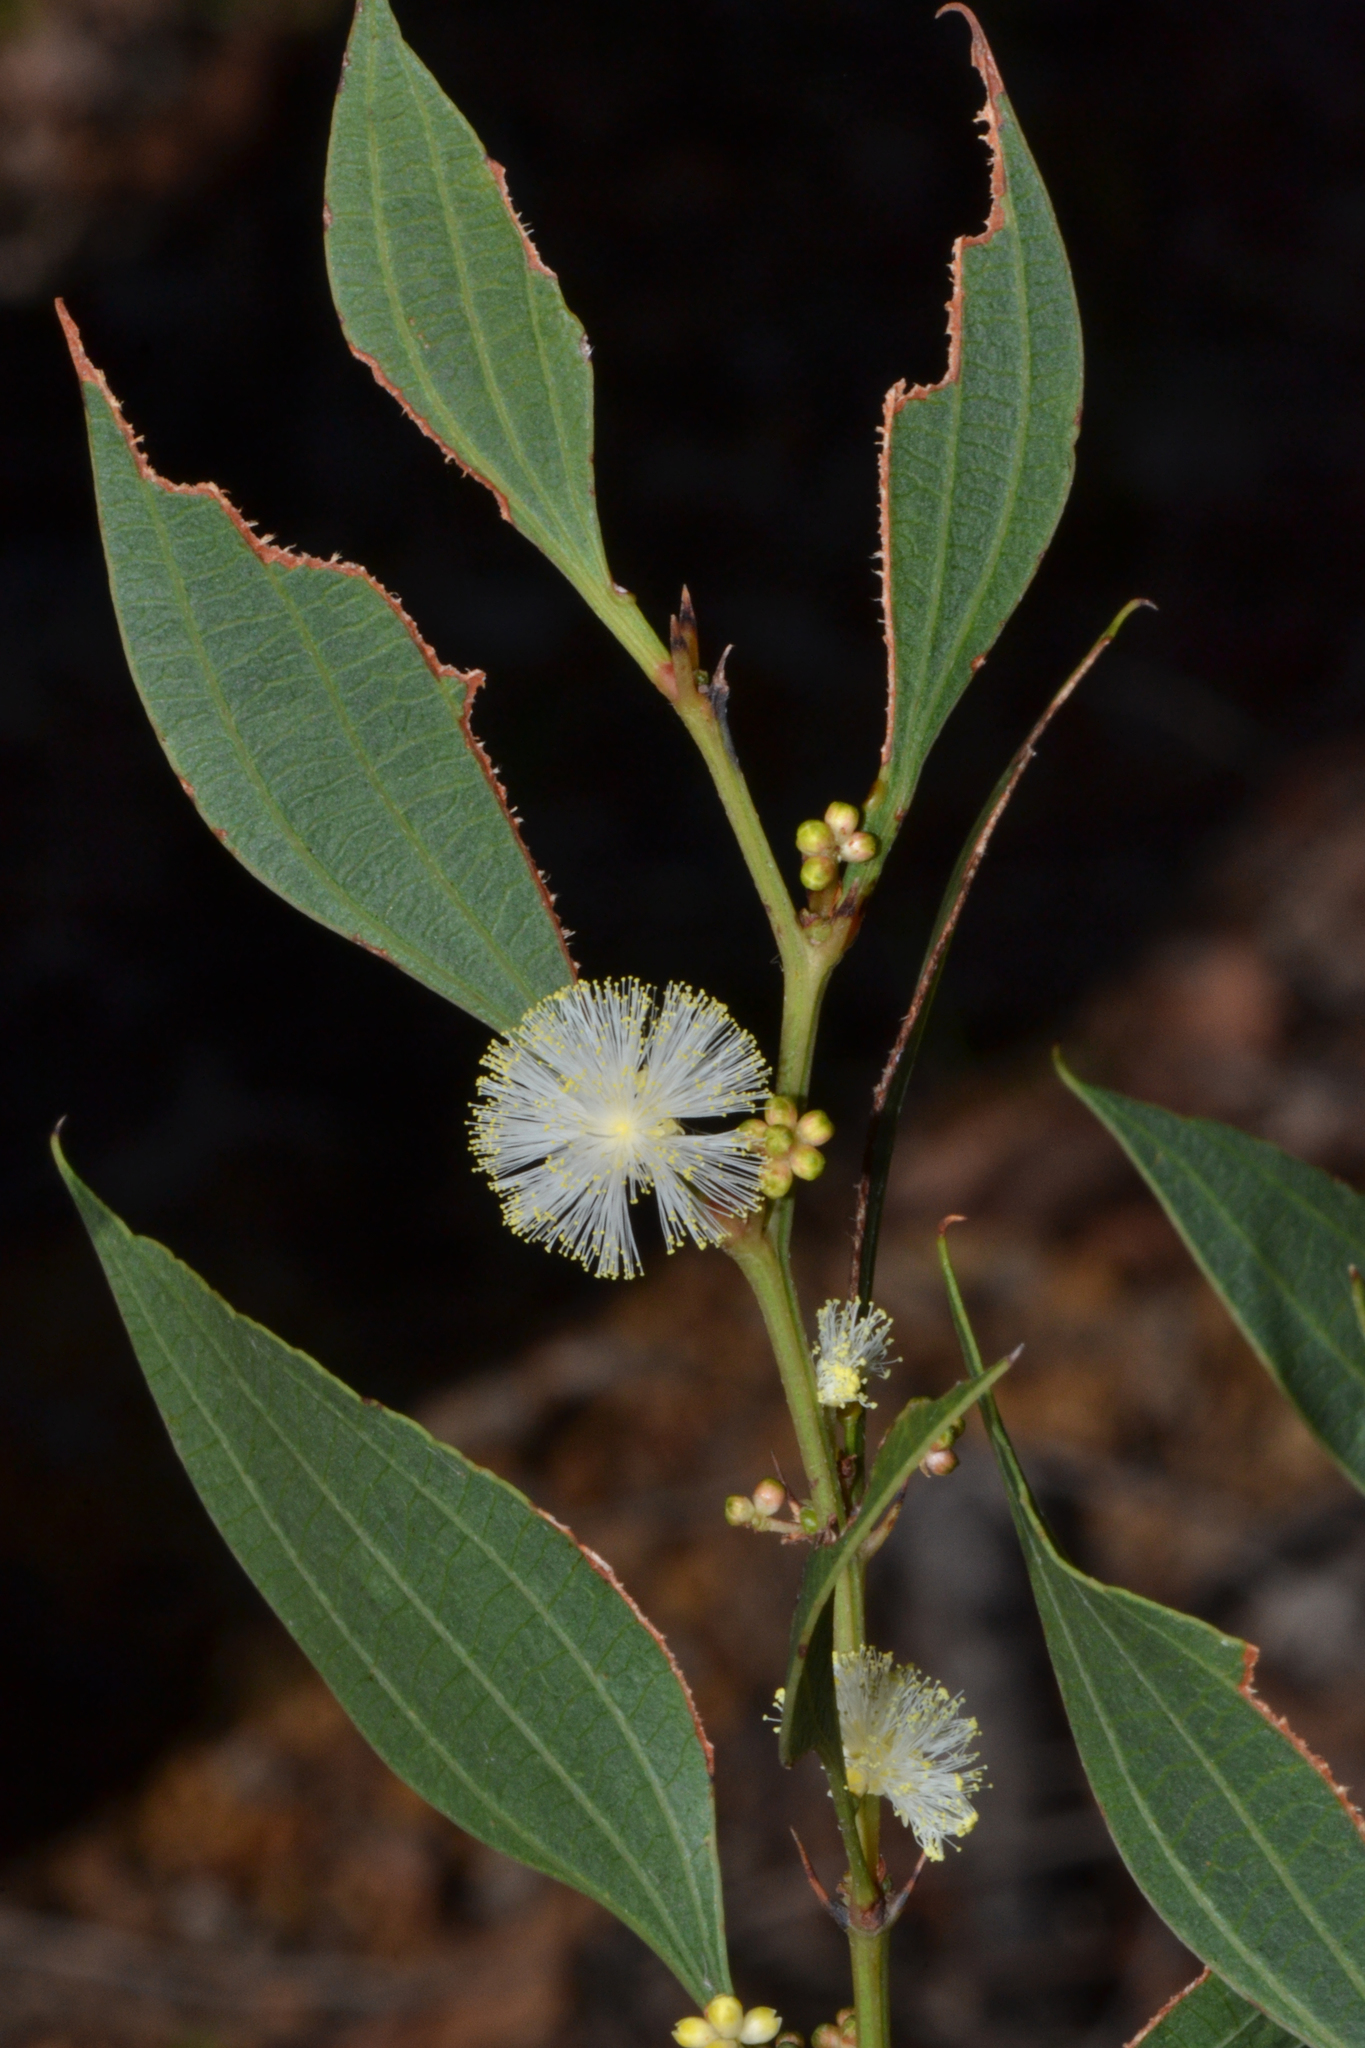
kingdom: Plantae
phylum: Tracheophyta
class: Magnoliopsida
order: Fabales
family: Fabaceae
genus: Acacia
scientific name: Acacia urophylla
